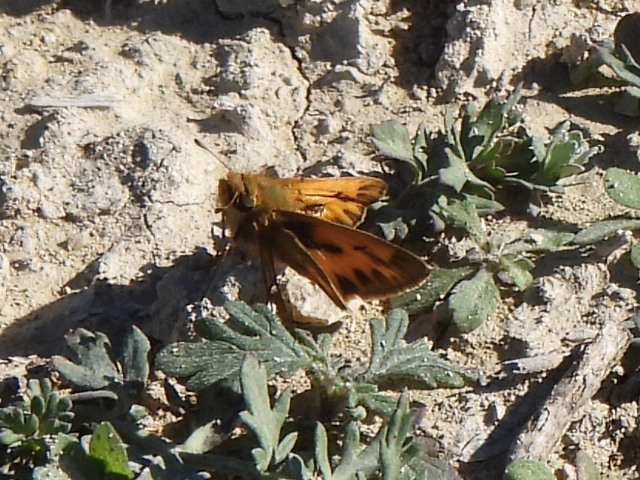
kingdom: Animalia
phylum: Arthropoda
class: Insecta
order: Lepidoptera
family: Hesperiidae
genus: Hylephila
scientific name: Hylephila phyleus
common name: Fiery skipper
